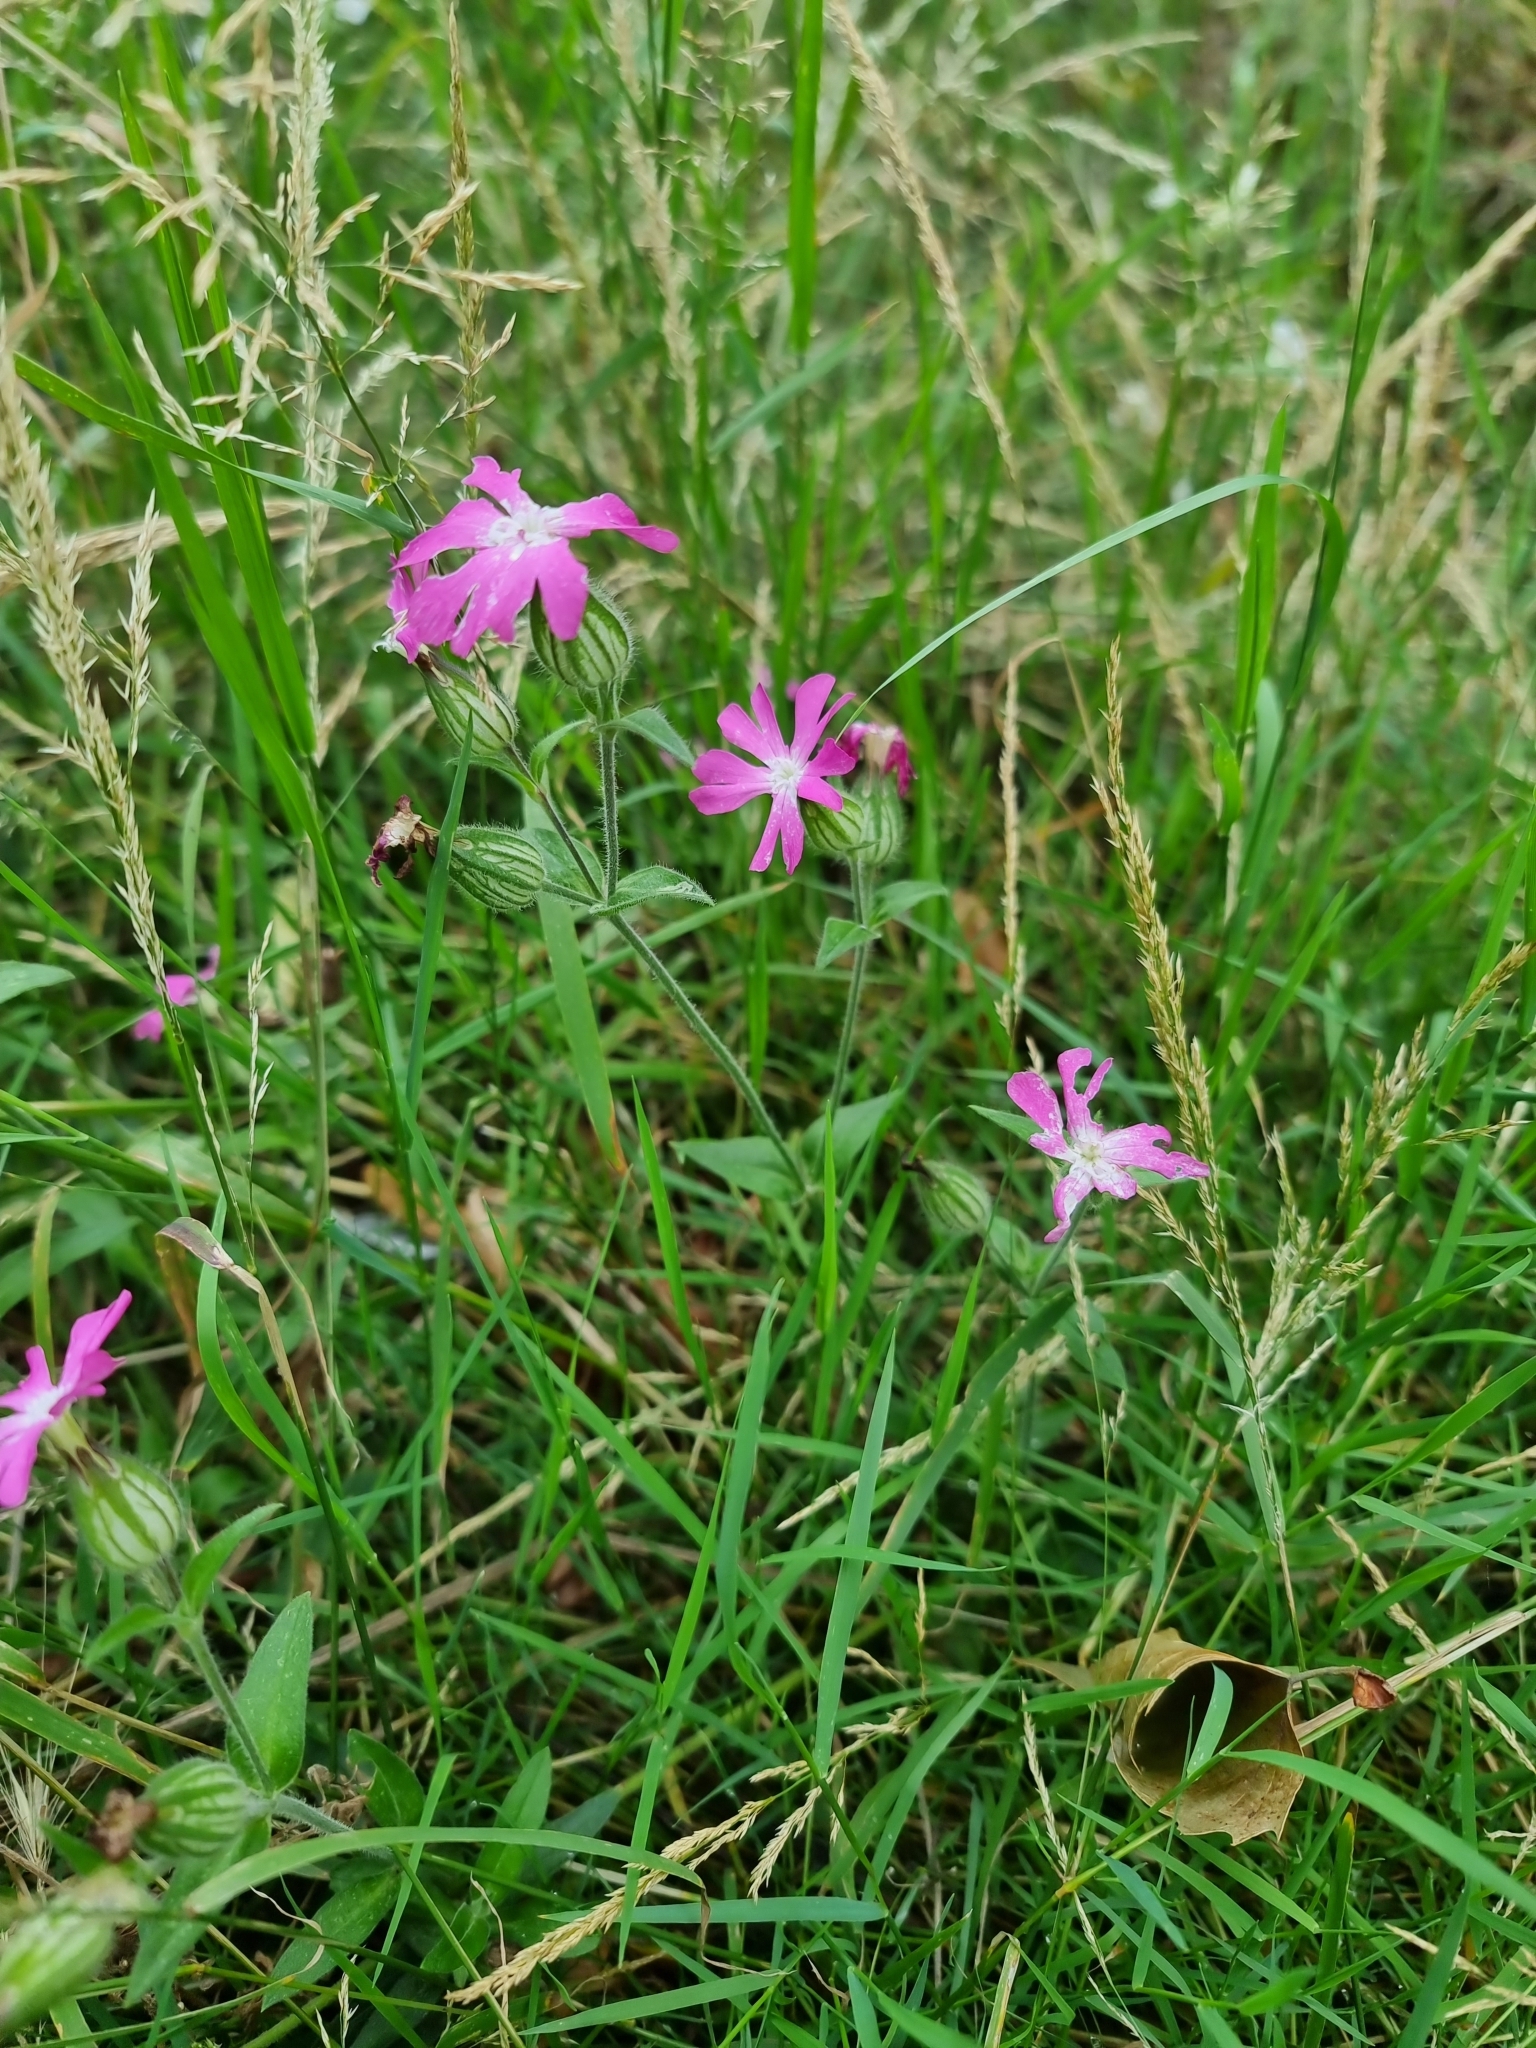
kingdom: Plantae
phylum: Tracheophyta
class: Magnoliopsida
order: Caryophyllales
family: Caryophyllaceae
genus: Silene
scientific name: Silene dioica
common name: Red campion
